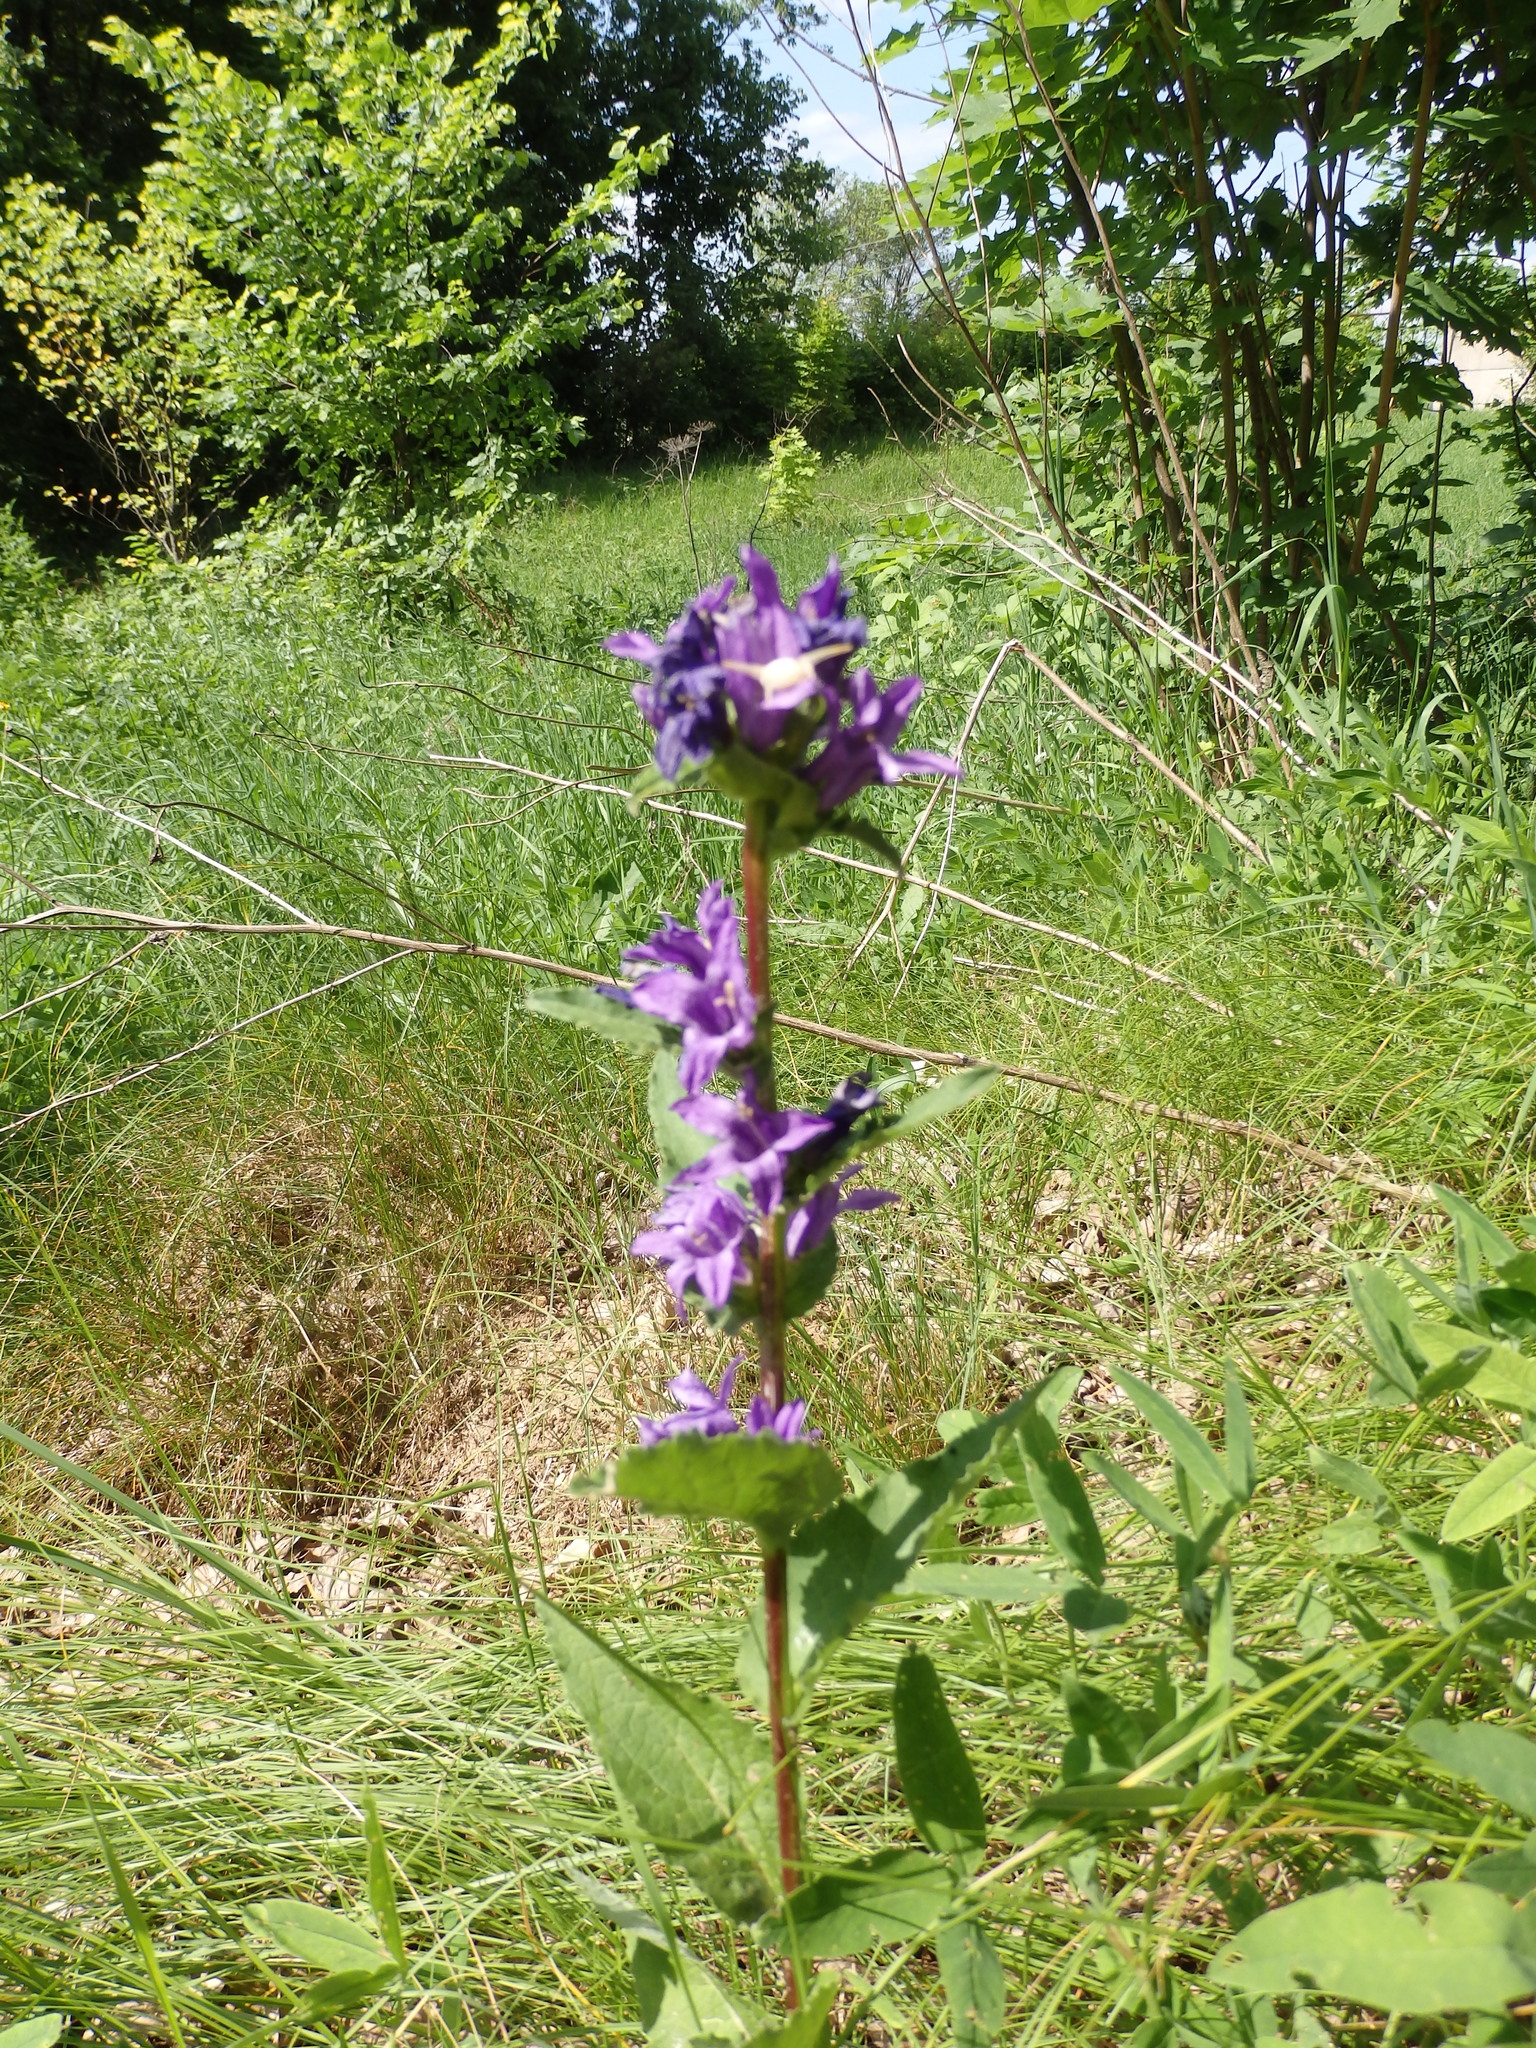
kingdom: Plantae
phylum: Tracheophyta
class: Magnoliopsida
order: Asterales
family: Campanulaceae
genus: Campanula
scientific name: Campanula glomerata
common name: Clustered bellflower
